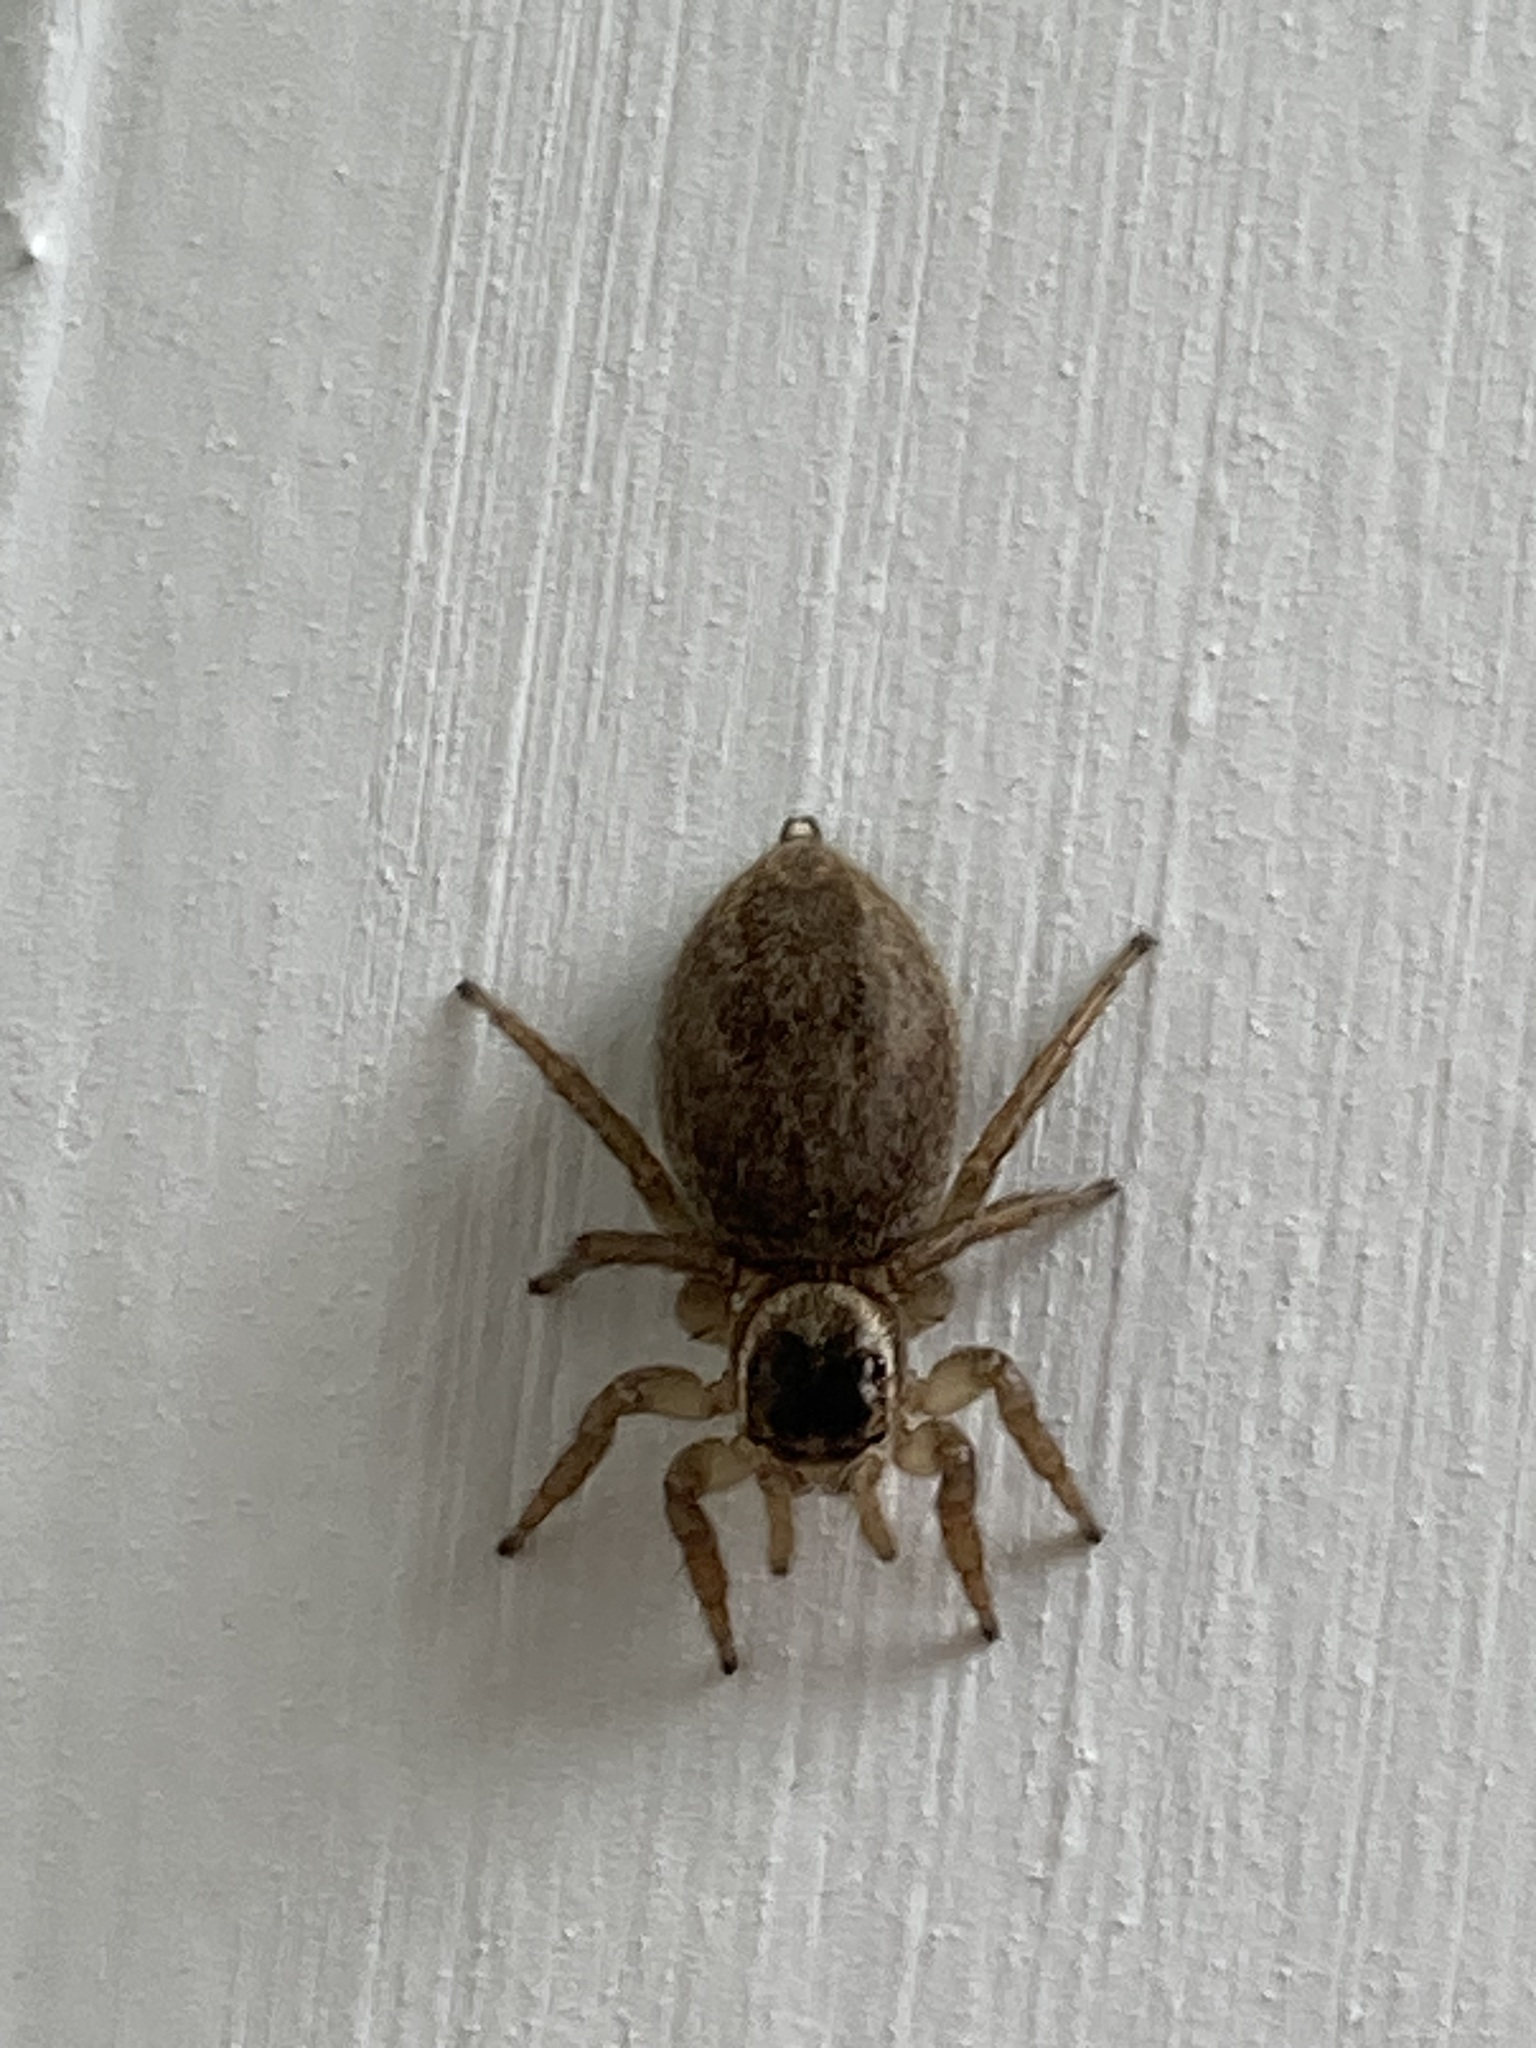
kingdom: Animalia
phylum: Arthropoda
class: Arachnida
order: Araneae
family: Salticidae
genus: Maratus
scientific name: Maratus griseus
